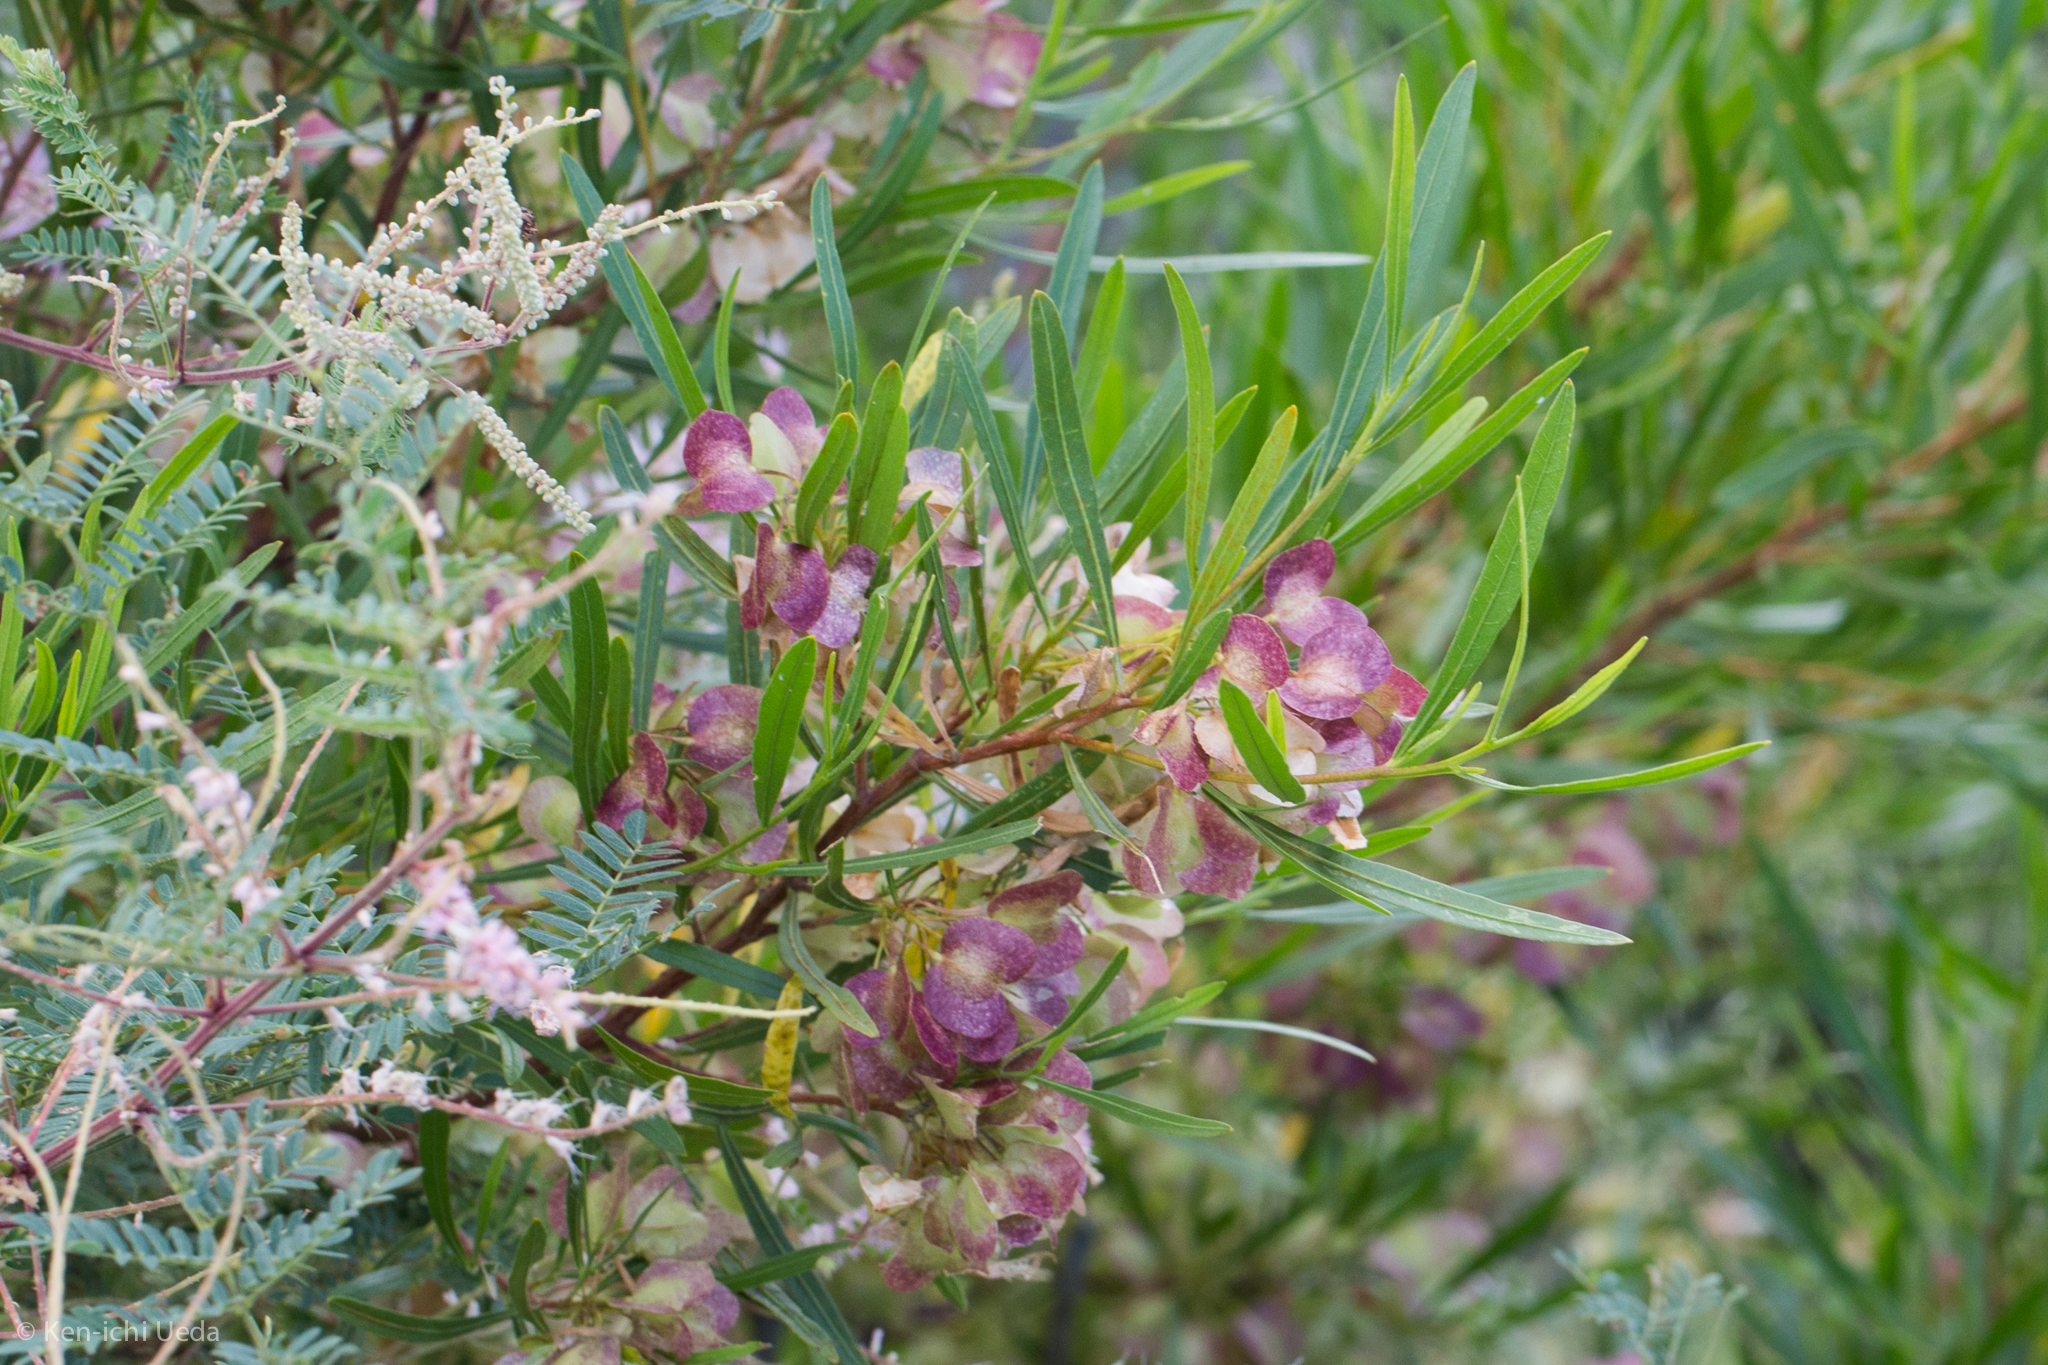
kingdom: Plantae
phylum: Tracheophyta
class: Magnoliopsida
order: Sapindales
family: Sapindaceae
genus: Dodonaea
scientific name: Dodonaea viscosa
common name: Hopbush
